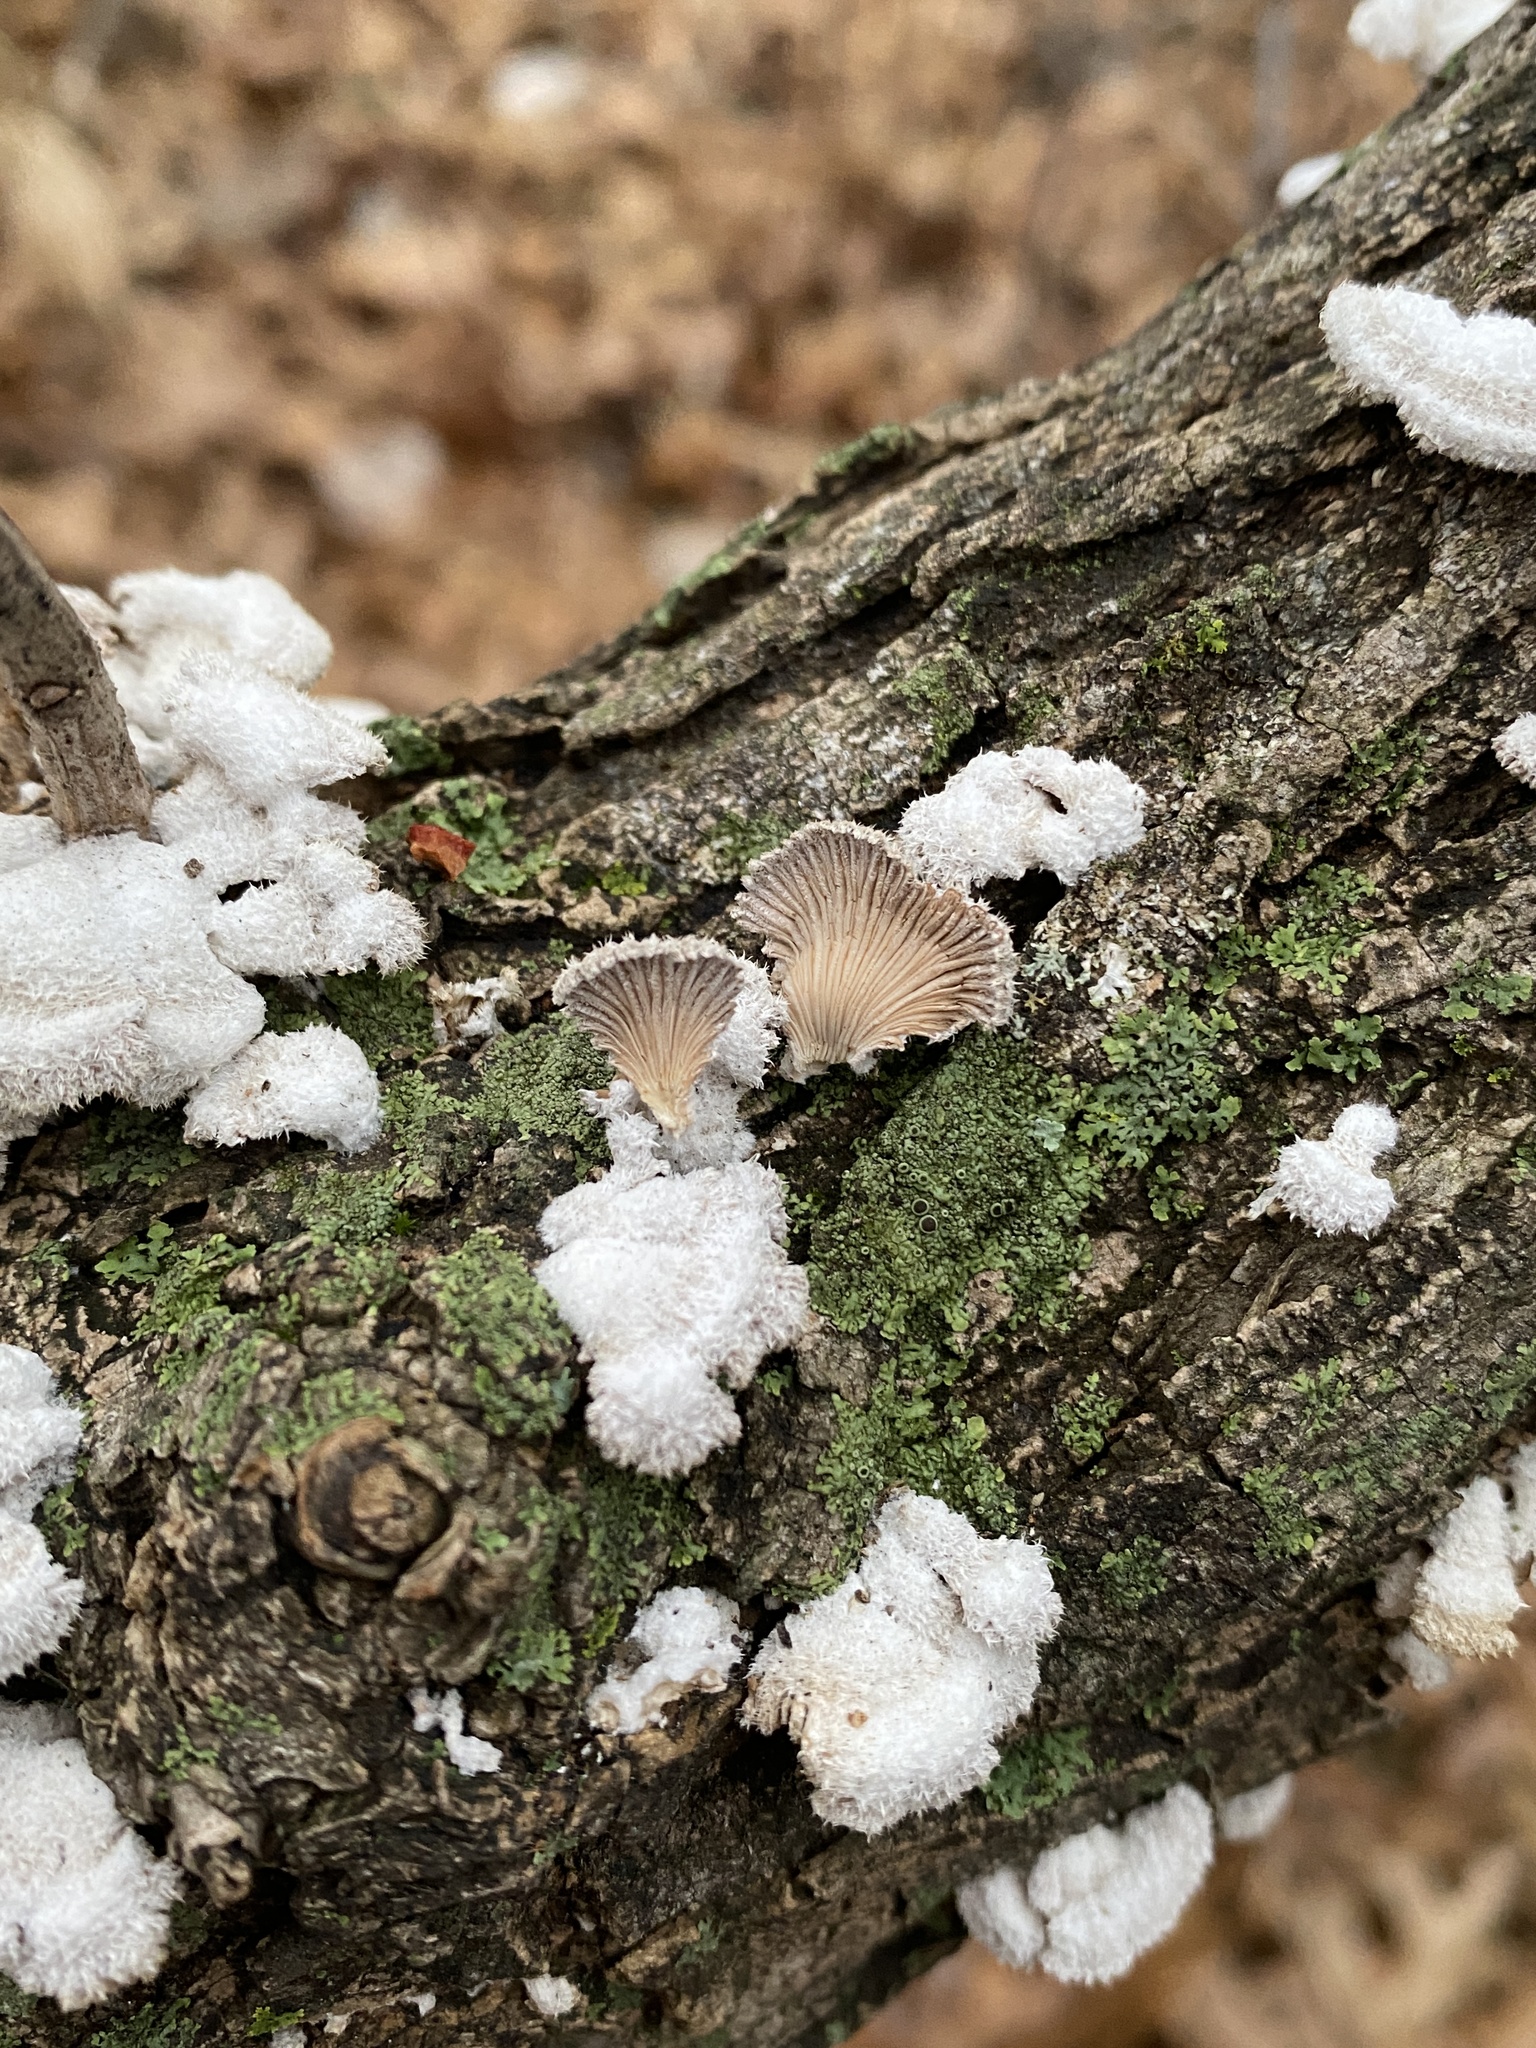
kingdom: Fungi
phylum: Basidiomycota
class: Agaricomycetes
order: Agaricales
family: Schizophyllaceae
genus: Schizophyllum
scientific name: Schizophyllum commune
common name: Common porecrust
